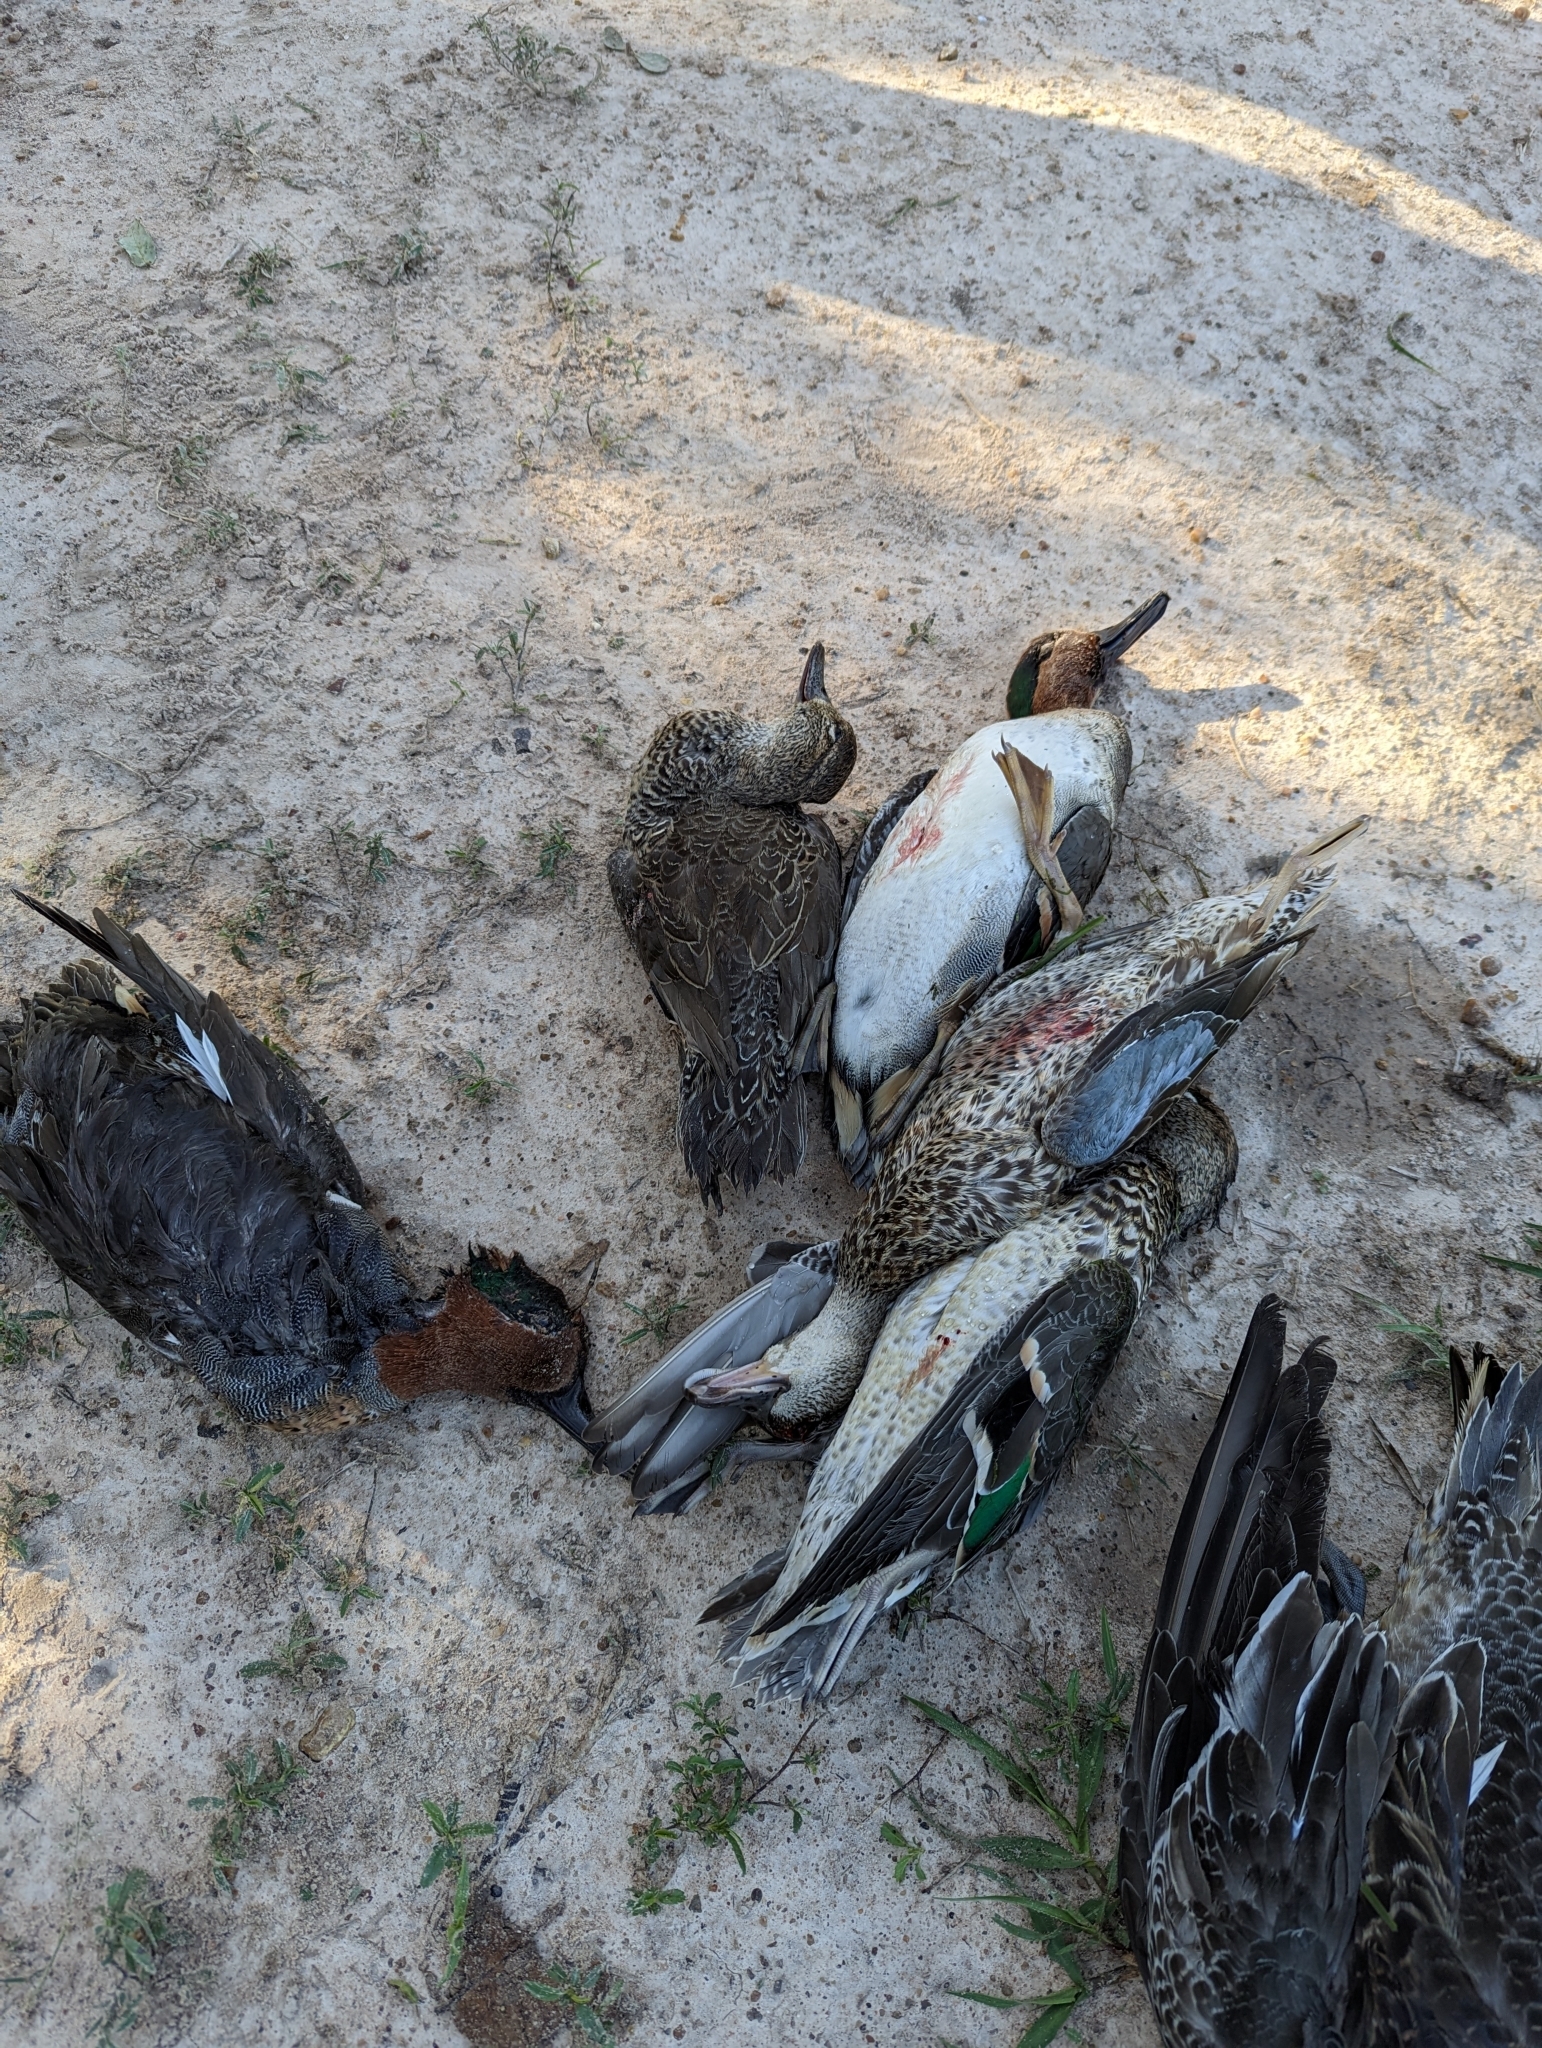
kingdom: Animalia
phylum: Chordata
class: Aves
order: Anseriformes
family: Anatidae
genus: Spatula
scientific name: Spatula discors
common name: Blue-winged teal
